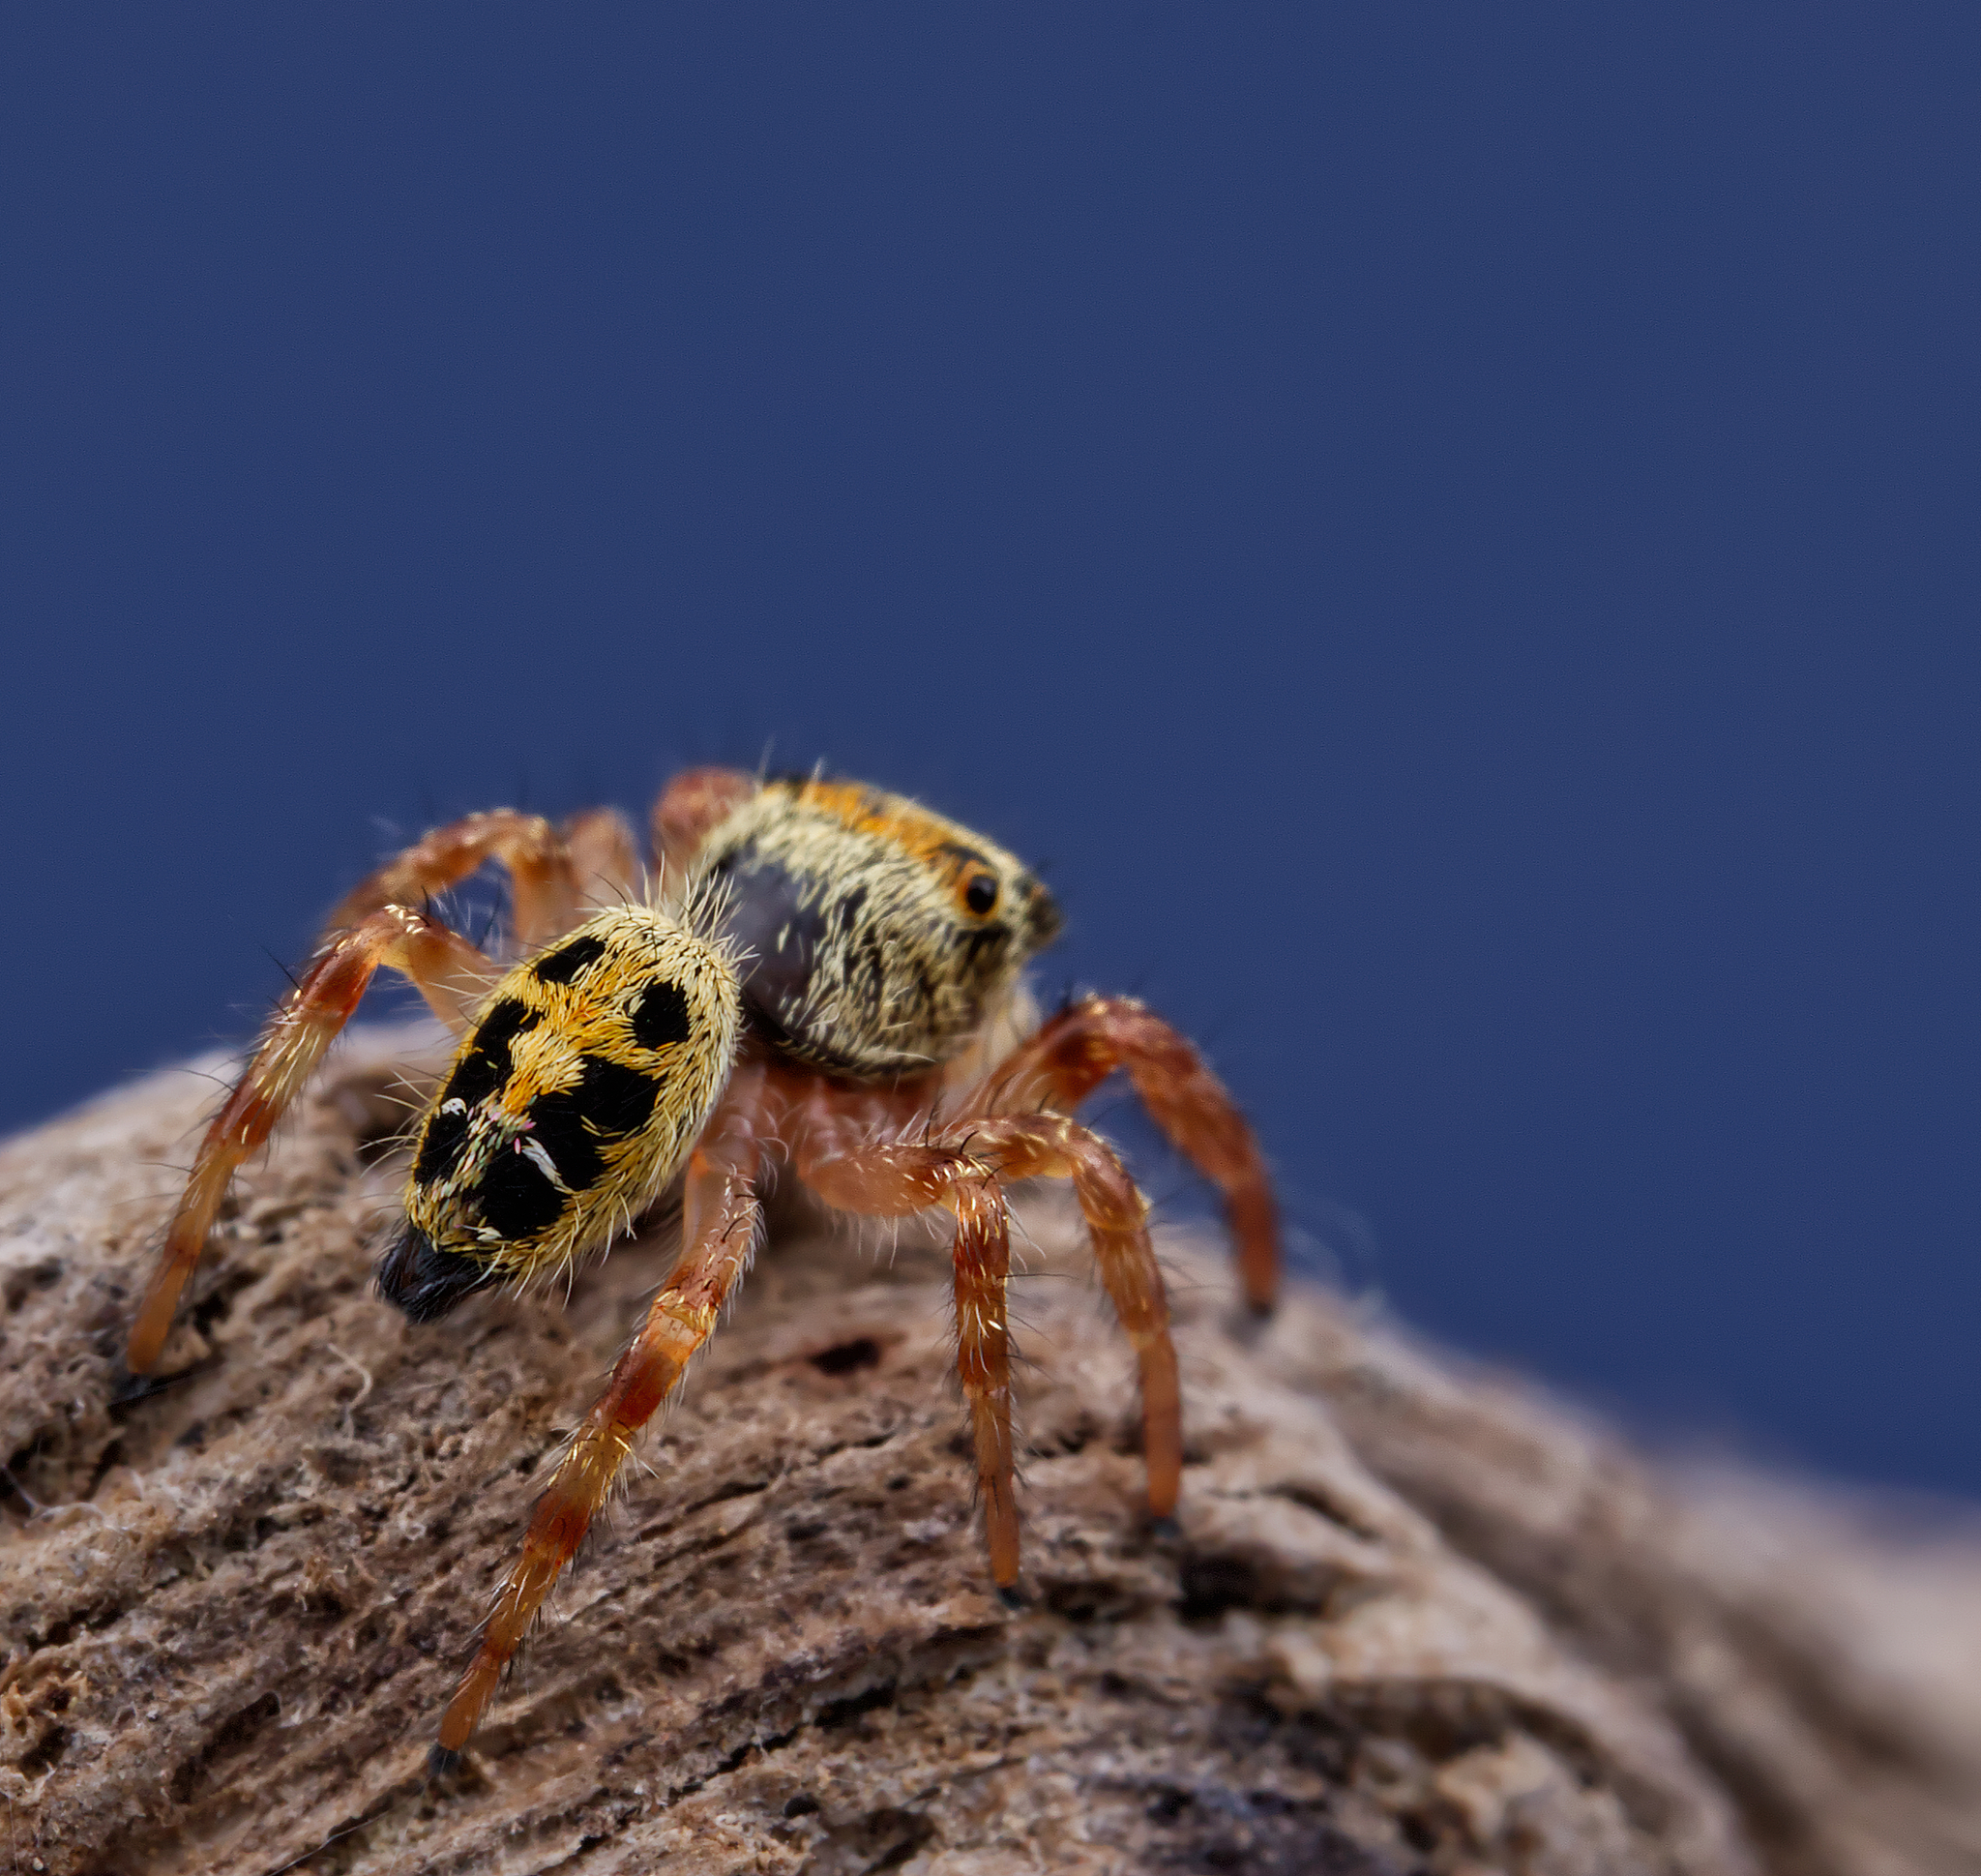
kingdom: Animalia
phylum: Arthropoda
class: Arachnida
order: Araneae
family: Salticidae
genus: Phidippus
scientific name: Phidippus princeps
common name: Grayish jumping spider
